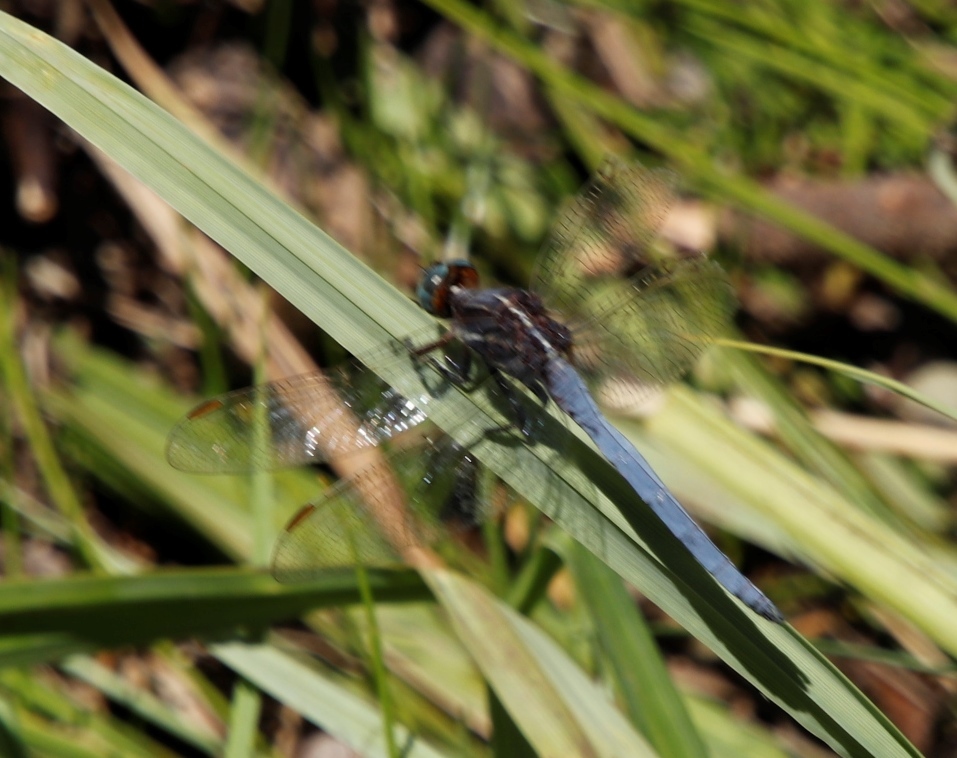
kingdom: Animalia
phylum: Arthropoda
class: Insecta
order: Odonata
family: Libellulidae
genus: Orthetrum
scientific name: Orthetrum caffrum
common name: Two-striped skimmer
